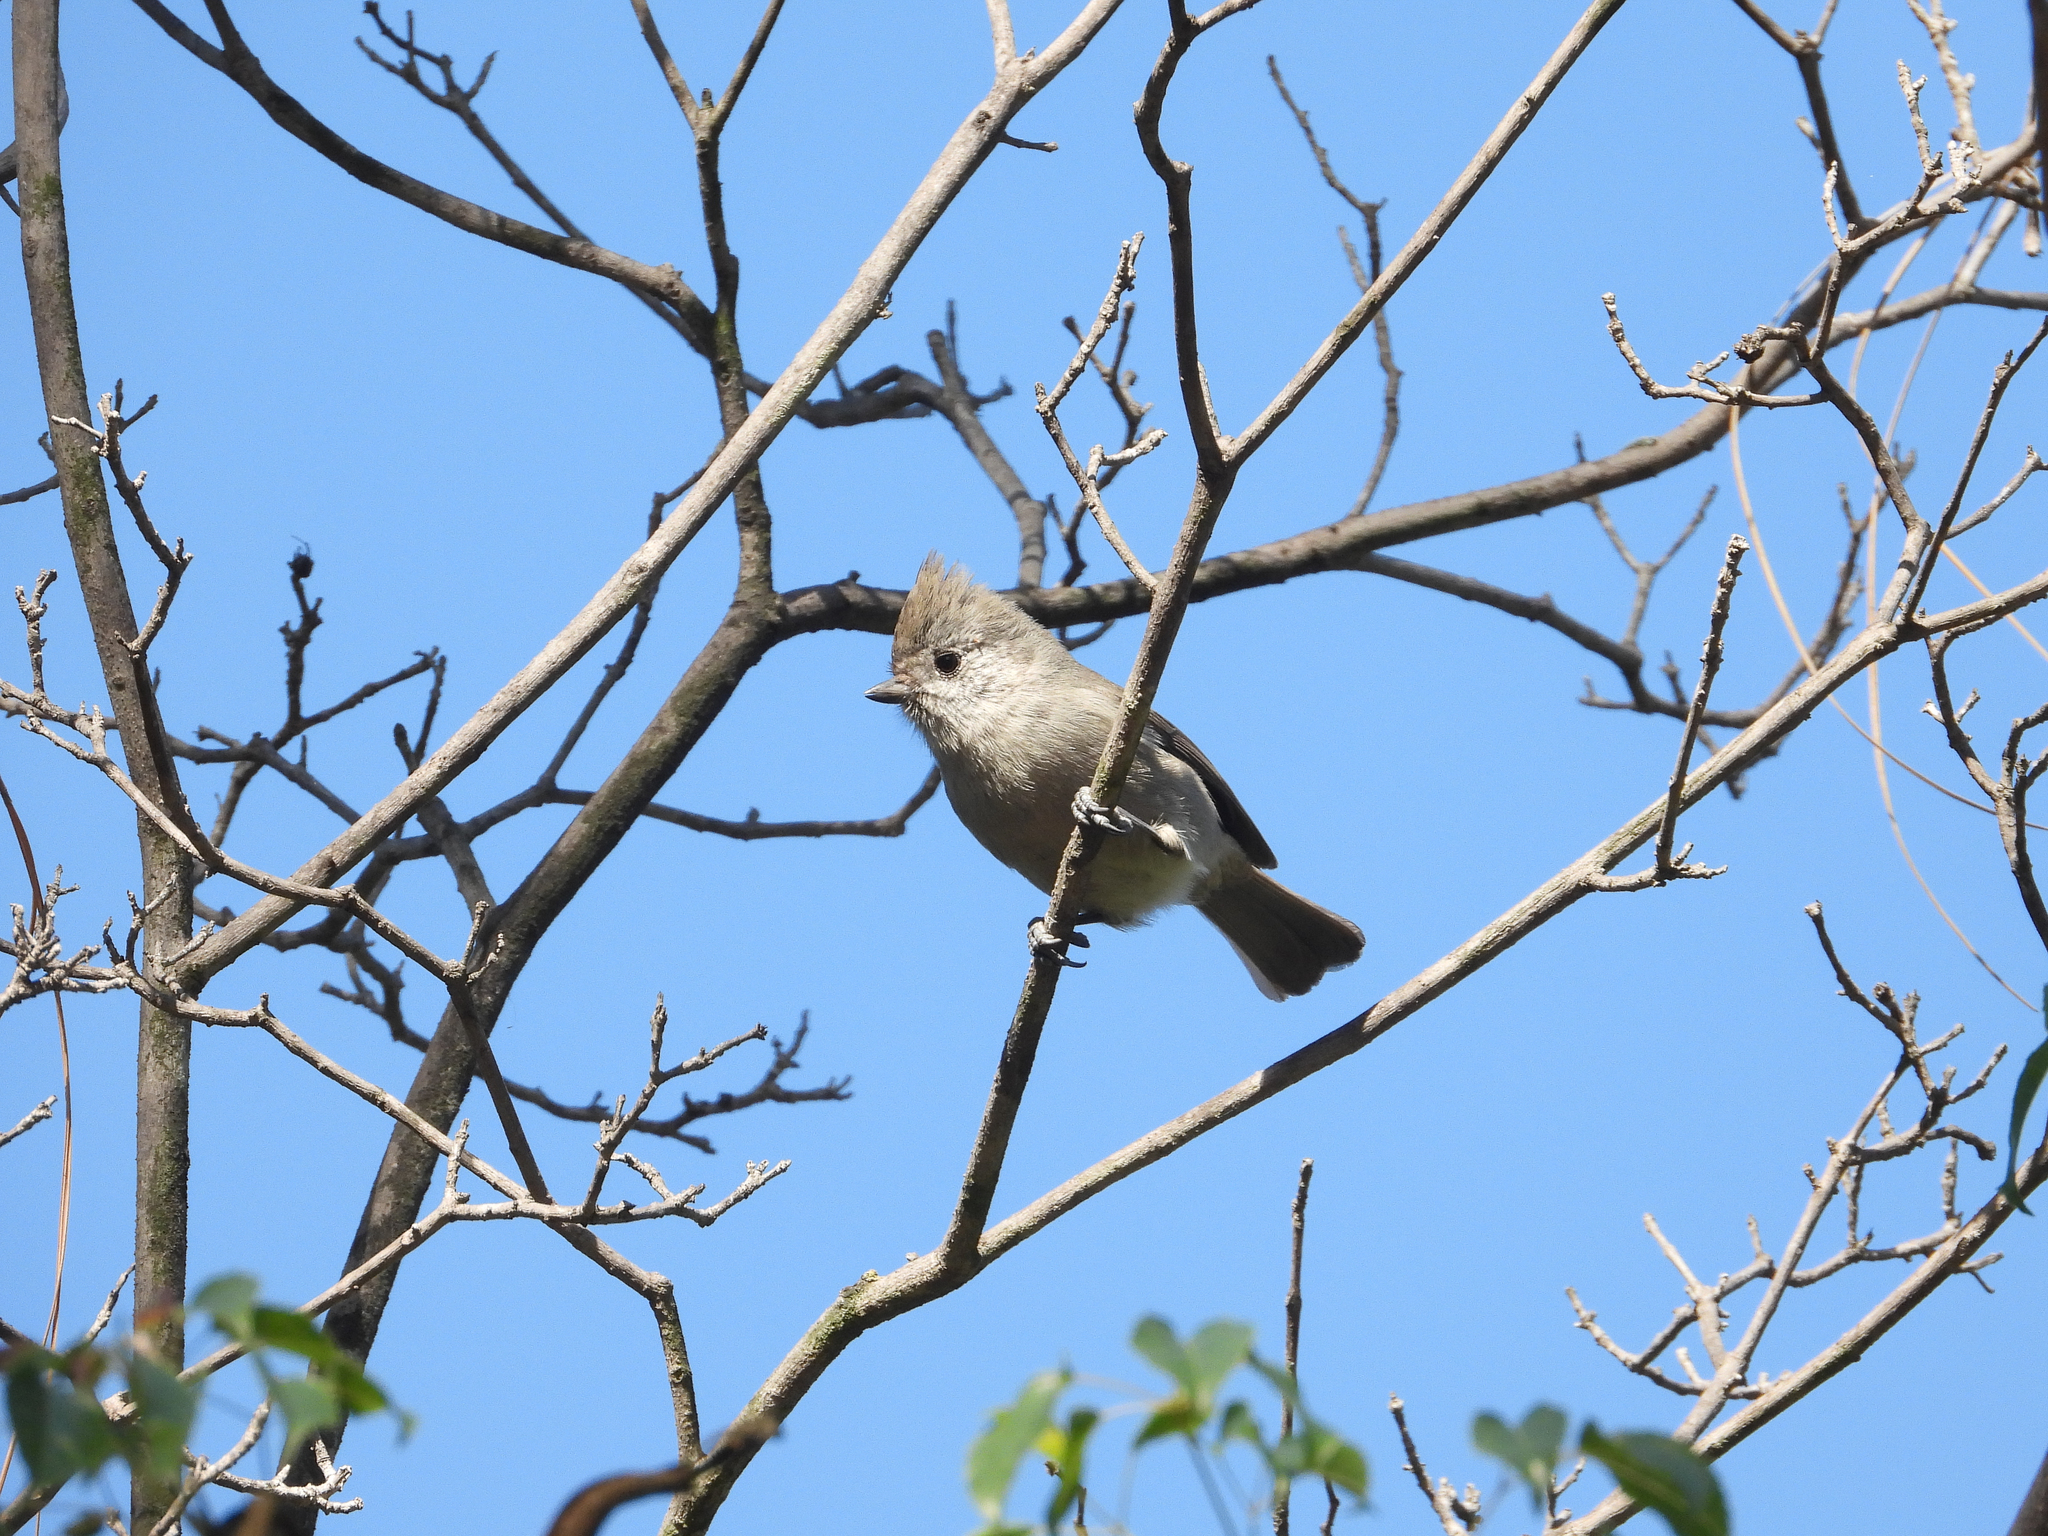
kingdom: Animalia
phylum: Chordata
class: Aves
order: Passeriformes
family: Paridae
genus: Baeolophus
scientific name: Baeolophus inornatus
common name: Oak titmouse
